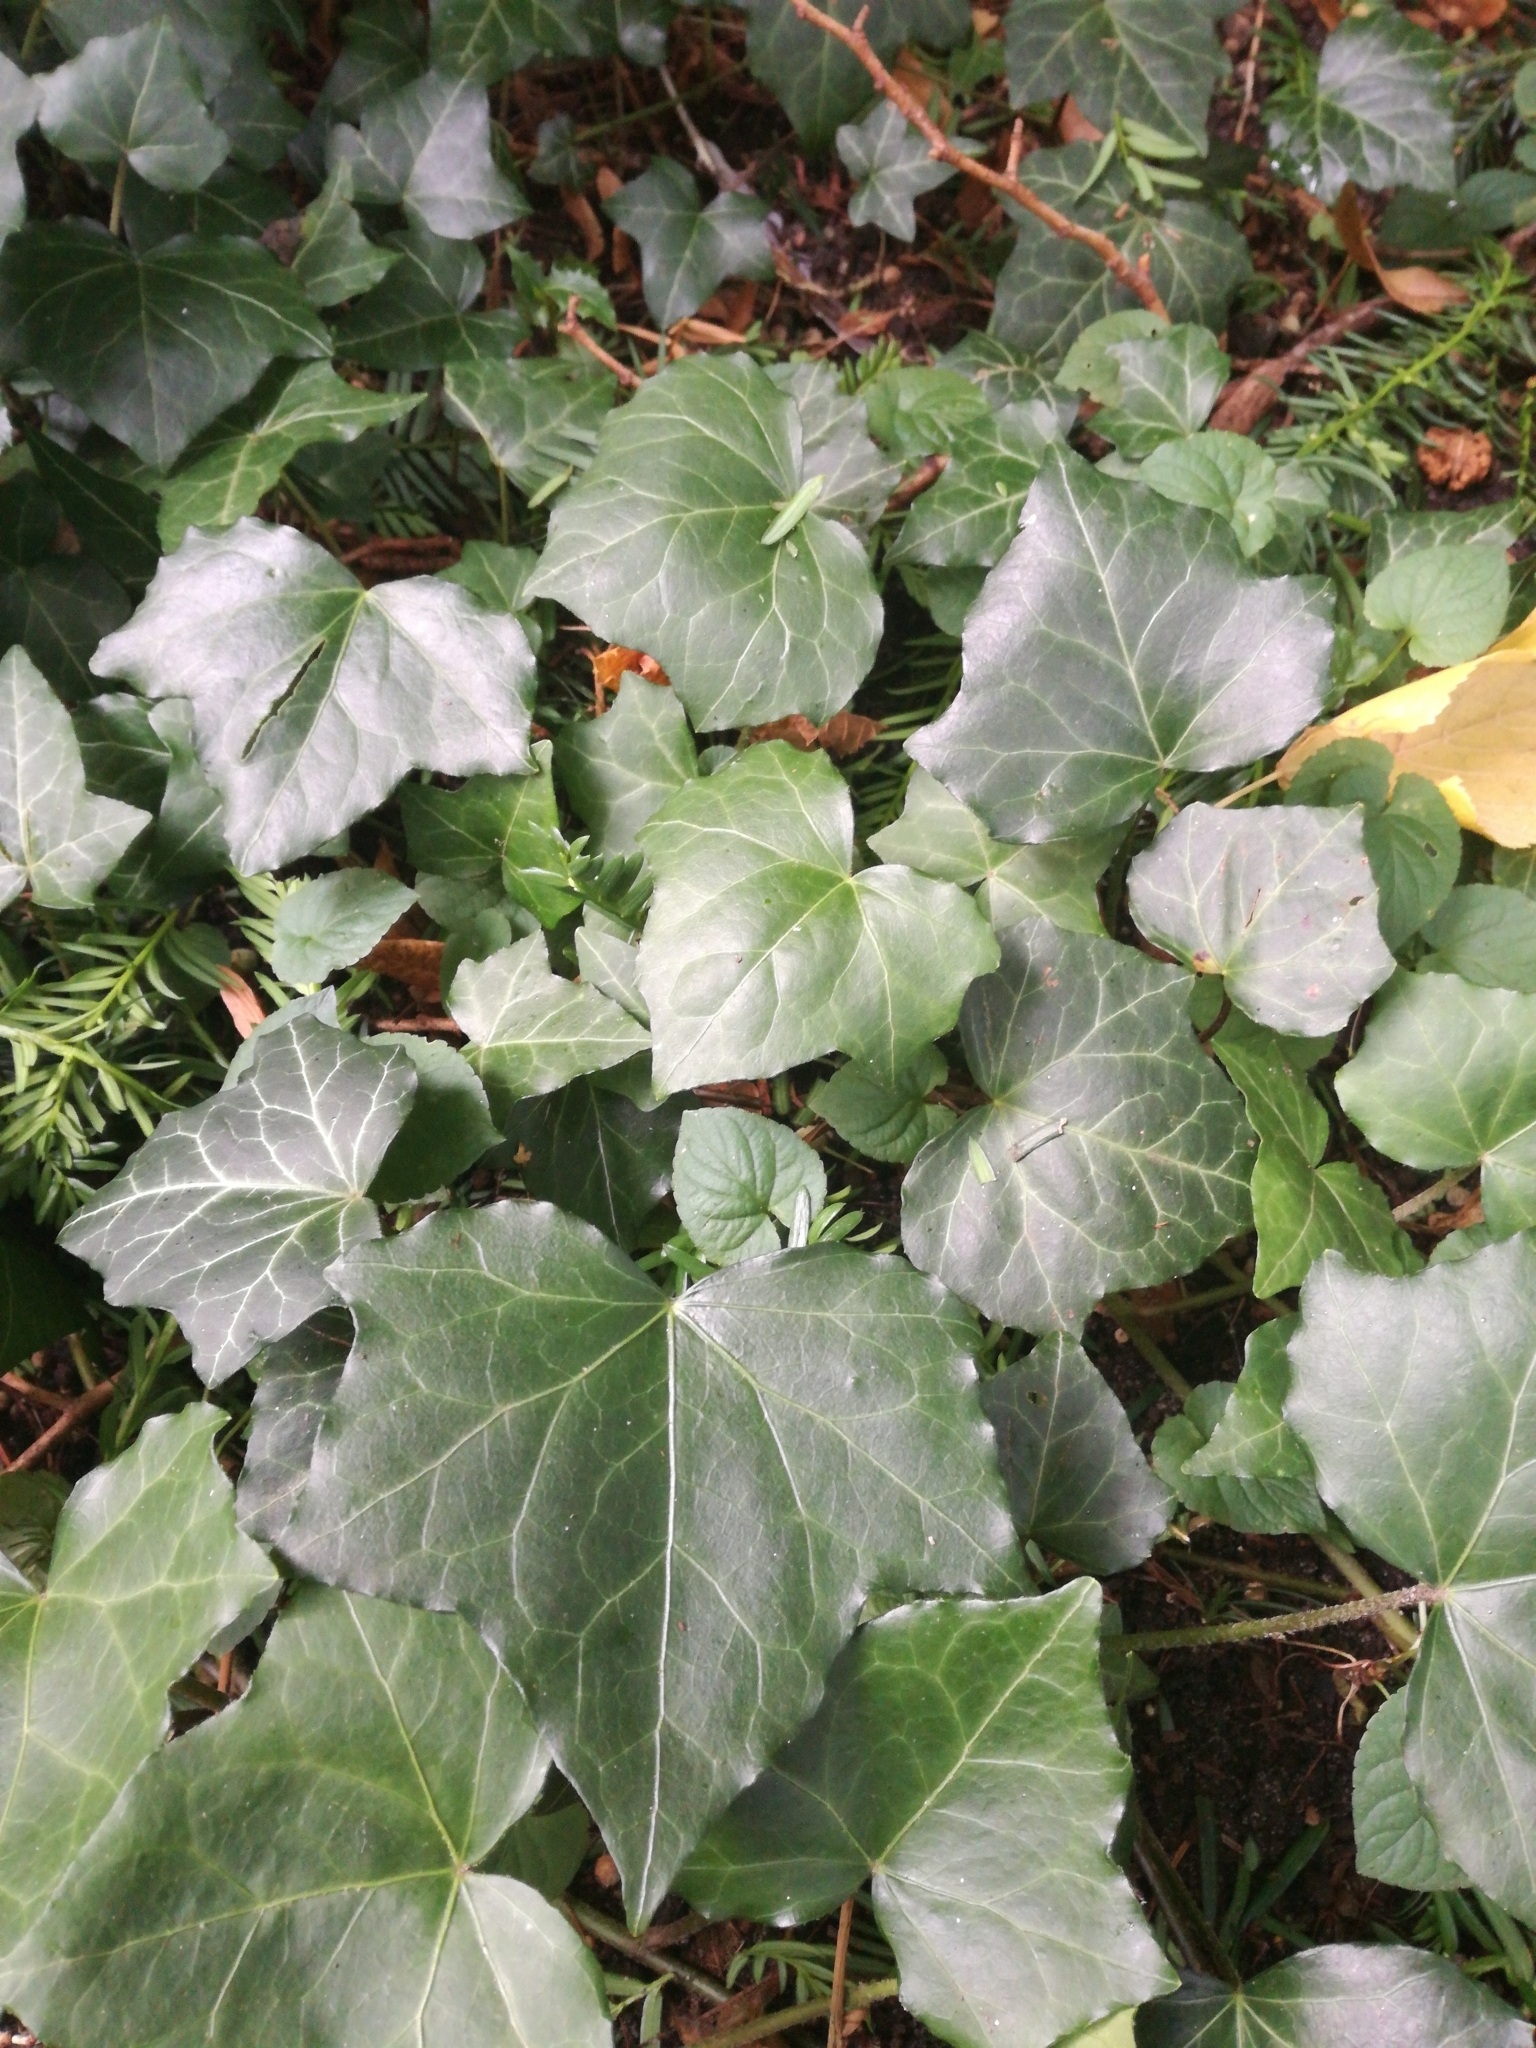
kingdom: Plantae
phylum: Tracheophyta
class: Magnoliopsida
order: Apiales
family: Araliaceae
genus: Hedera
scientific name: Hedera helix
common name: Ivy
